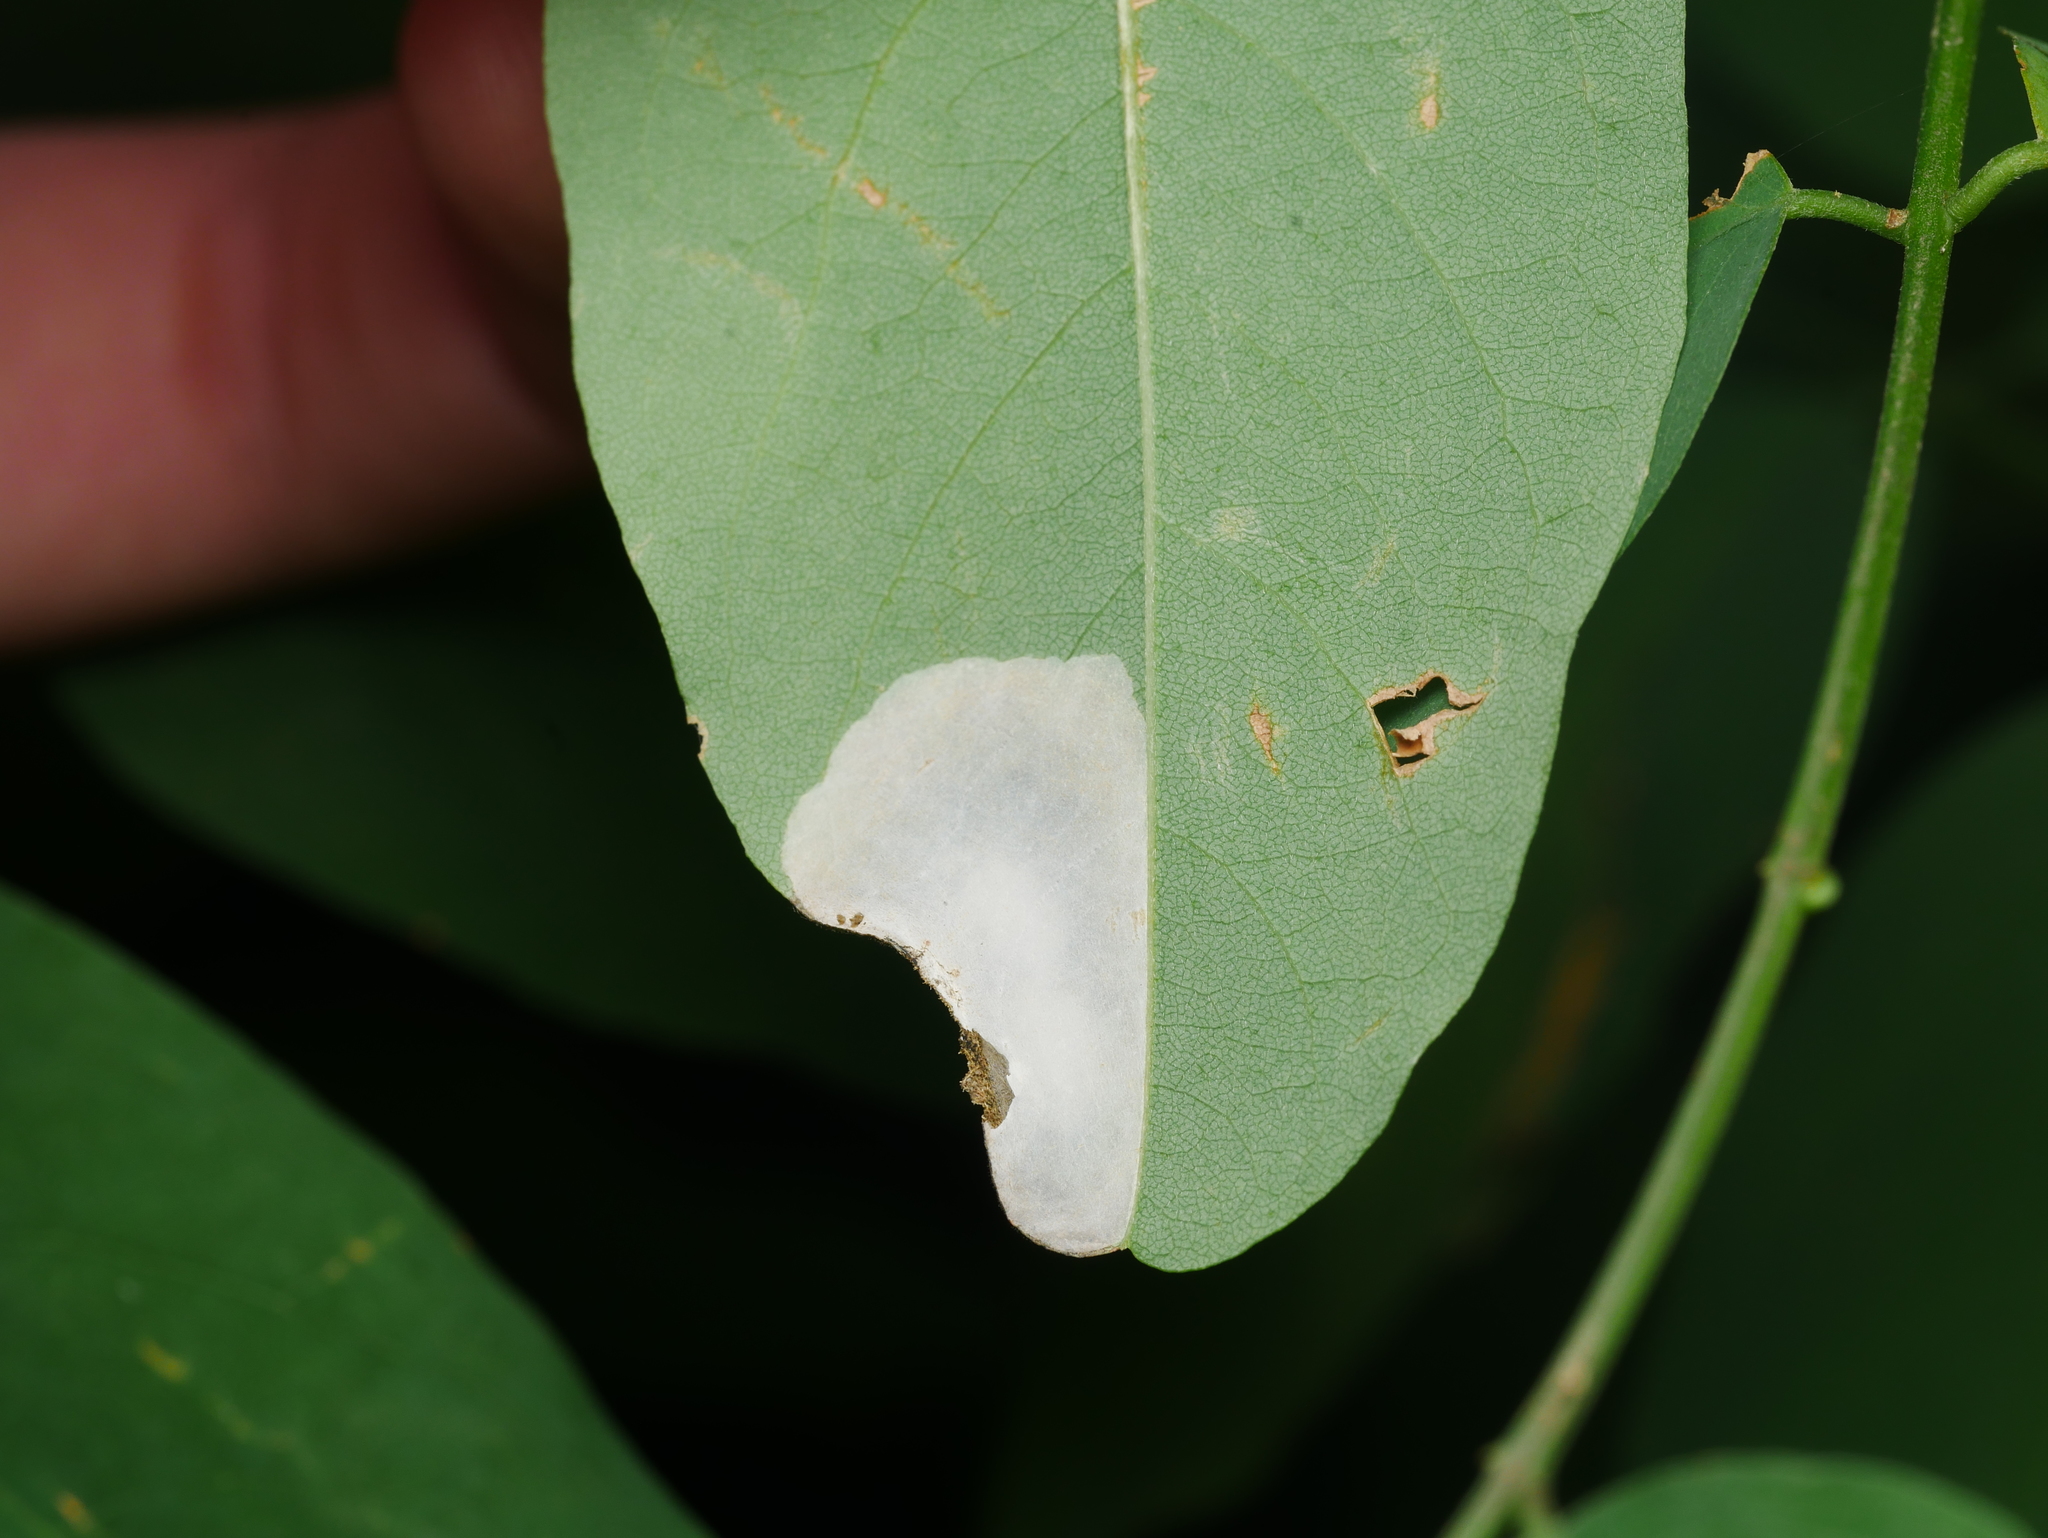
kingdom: Animalia
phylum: Arthropoda
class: Insecta
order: Lepidoptera
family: Gracillariidae
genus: Macrosaccus
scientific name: Macrosaccus robiniella
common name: Leaf blotch miner moth
